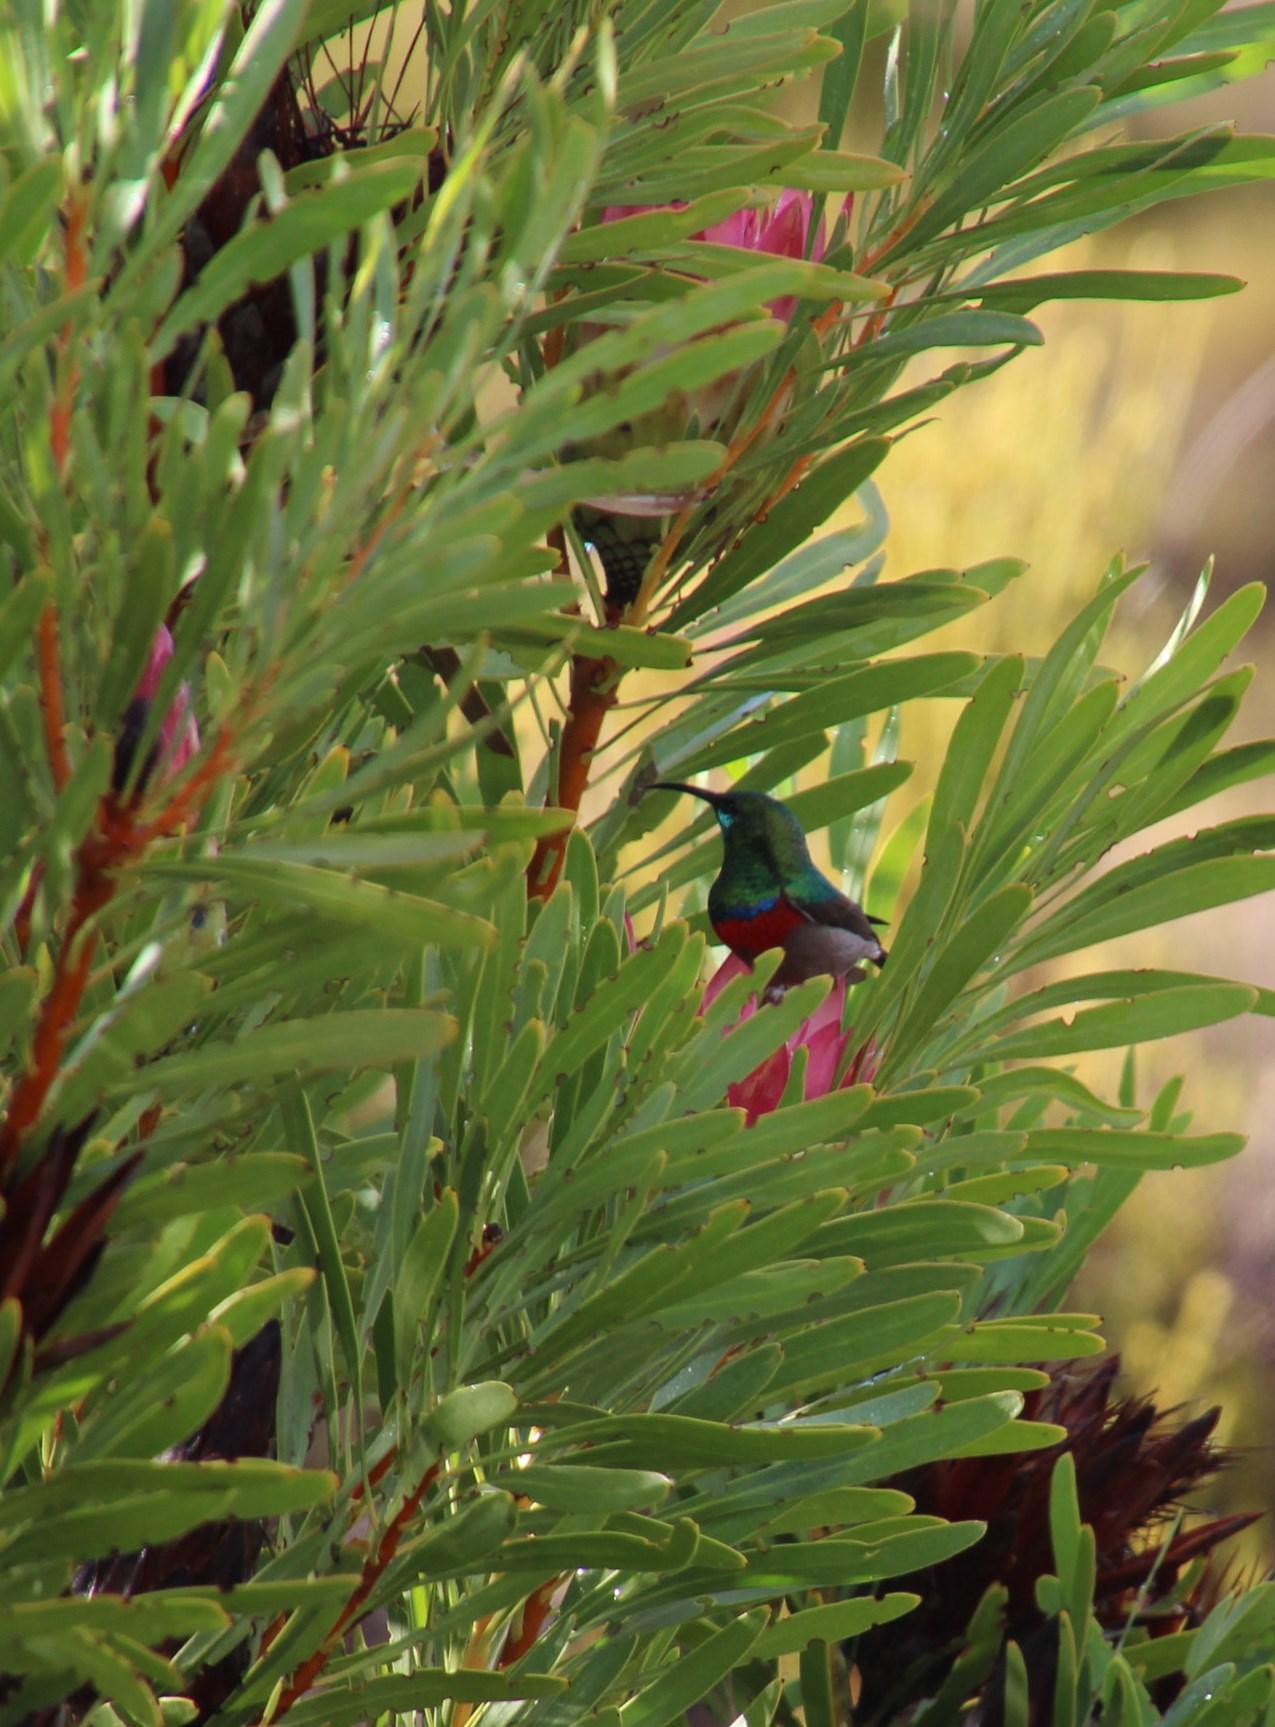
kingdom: Plantae
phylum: Tracheophyta
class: Magnoliopsida
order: Proteales
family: Proteaceae
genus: Protea
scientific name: Protea repens
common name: Sugarbush
